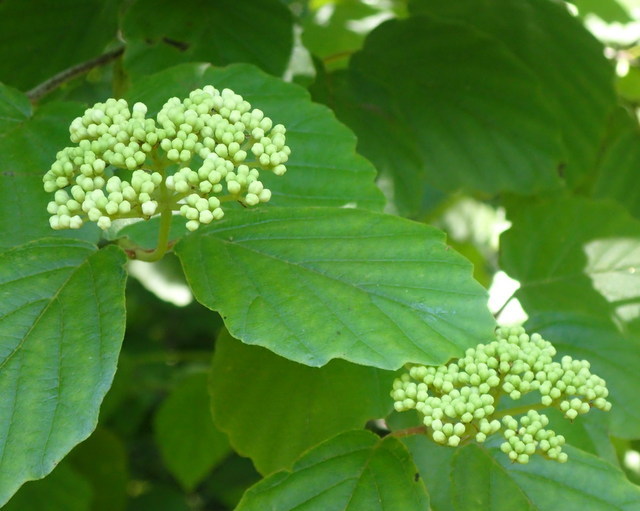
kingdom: Plantae
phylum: Tracheophyta
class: Magnoliopsida
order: Dipsacales
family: Viburnaceae
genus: Viburnum
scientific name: Viburnum scabrellum
